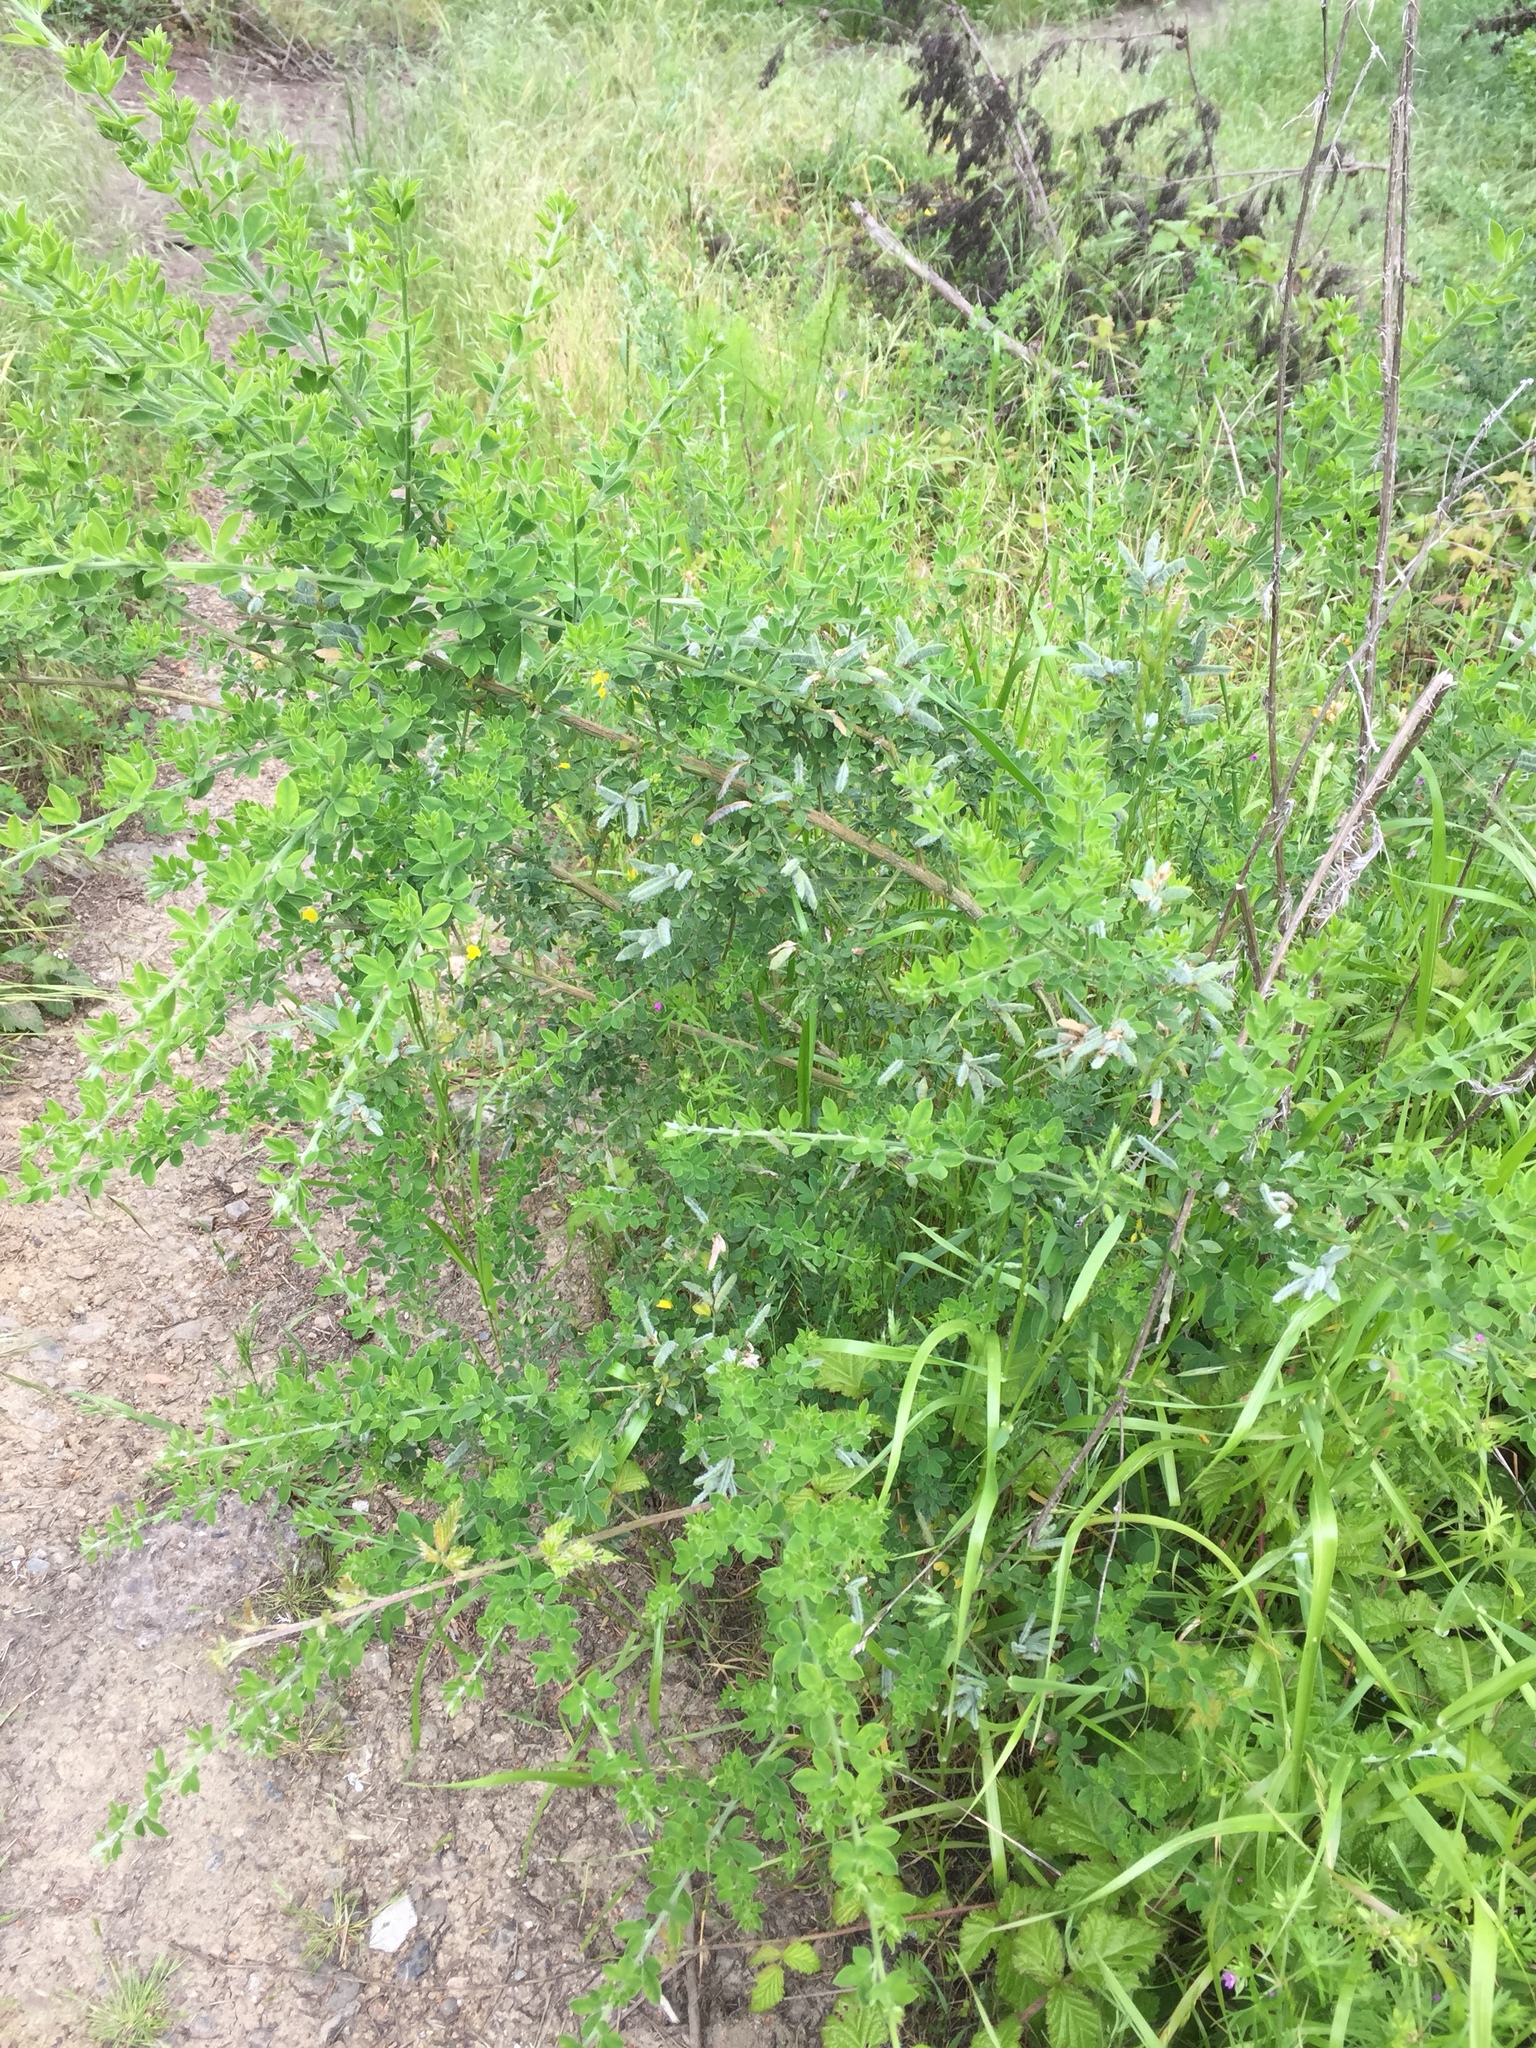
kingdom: Plantae
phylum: Tracheophyta
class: Magnoliopsida
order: Fabales
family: Fabaceae
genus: Genista
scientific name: Genista monspessulana
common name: Montpellier broom
